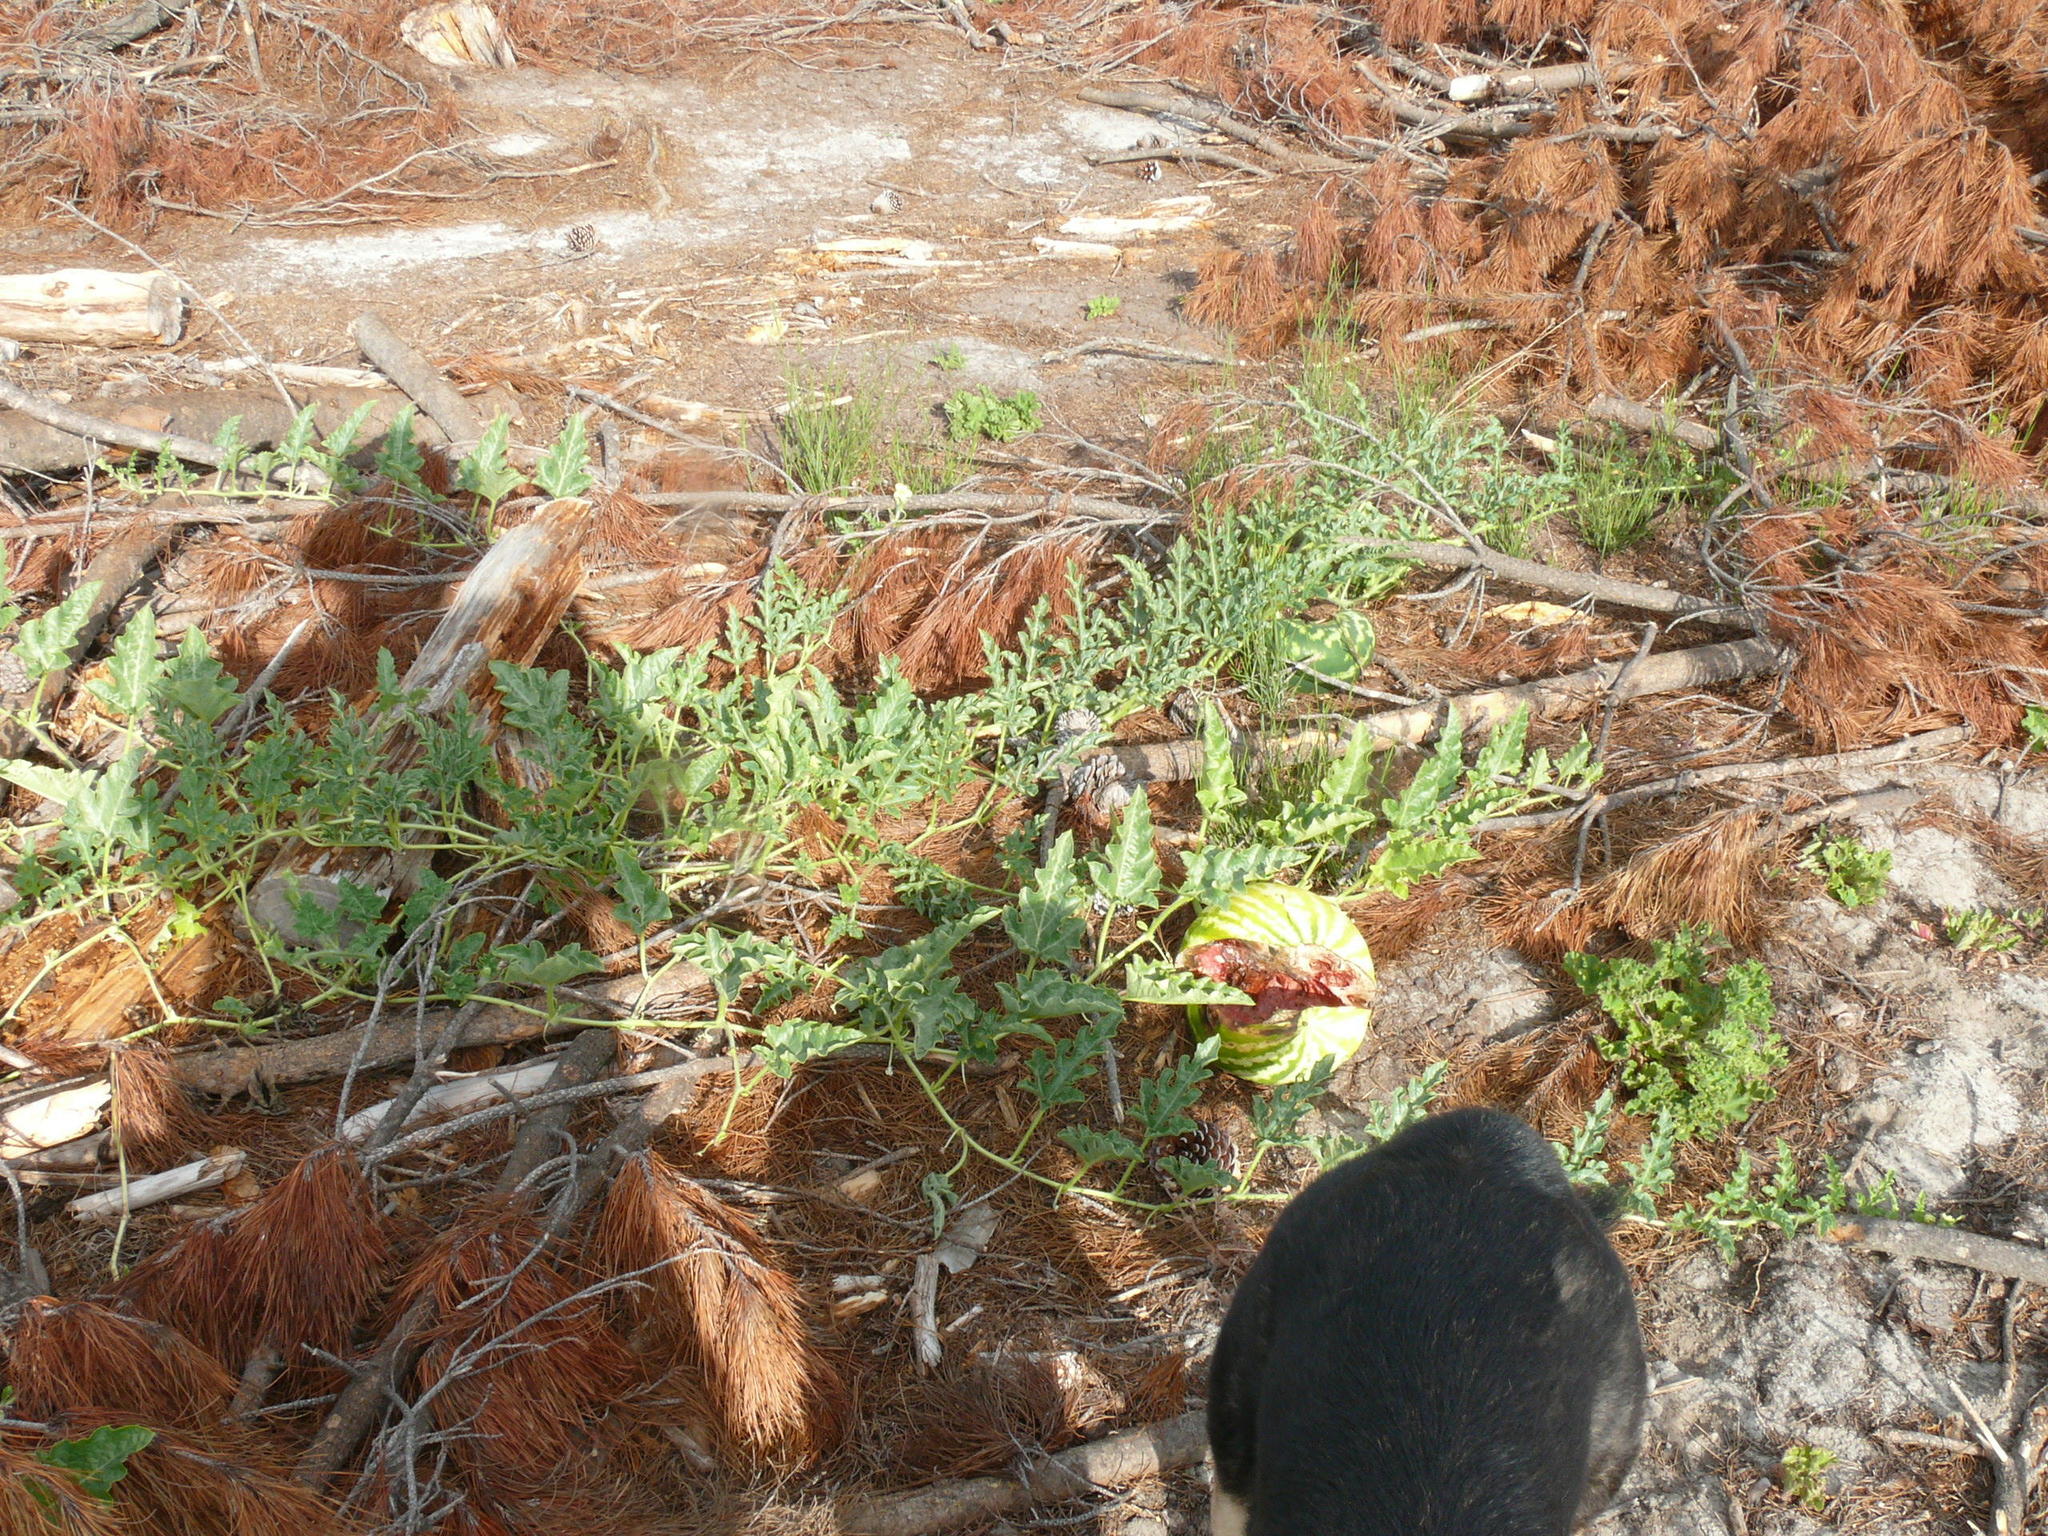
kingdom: Plantae
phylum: Tracheophyta
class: Magnoliopsida
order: Cucurbitales
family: Cucurbitaceae
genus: Citrullus
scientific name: Citrullus lanatus
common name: Watermelon
